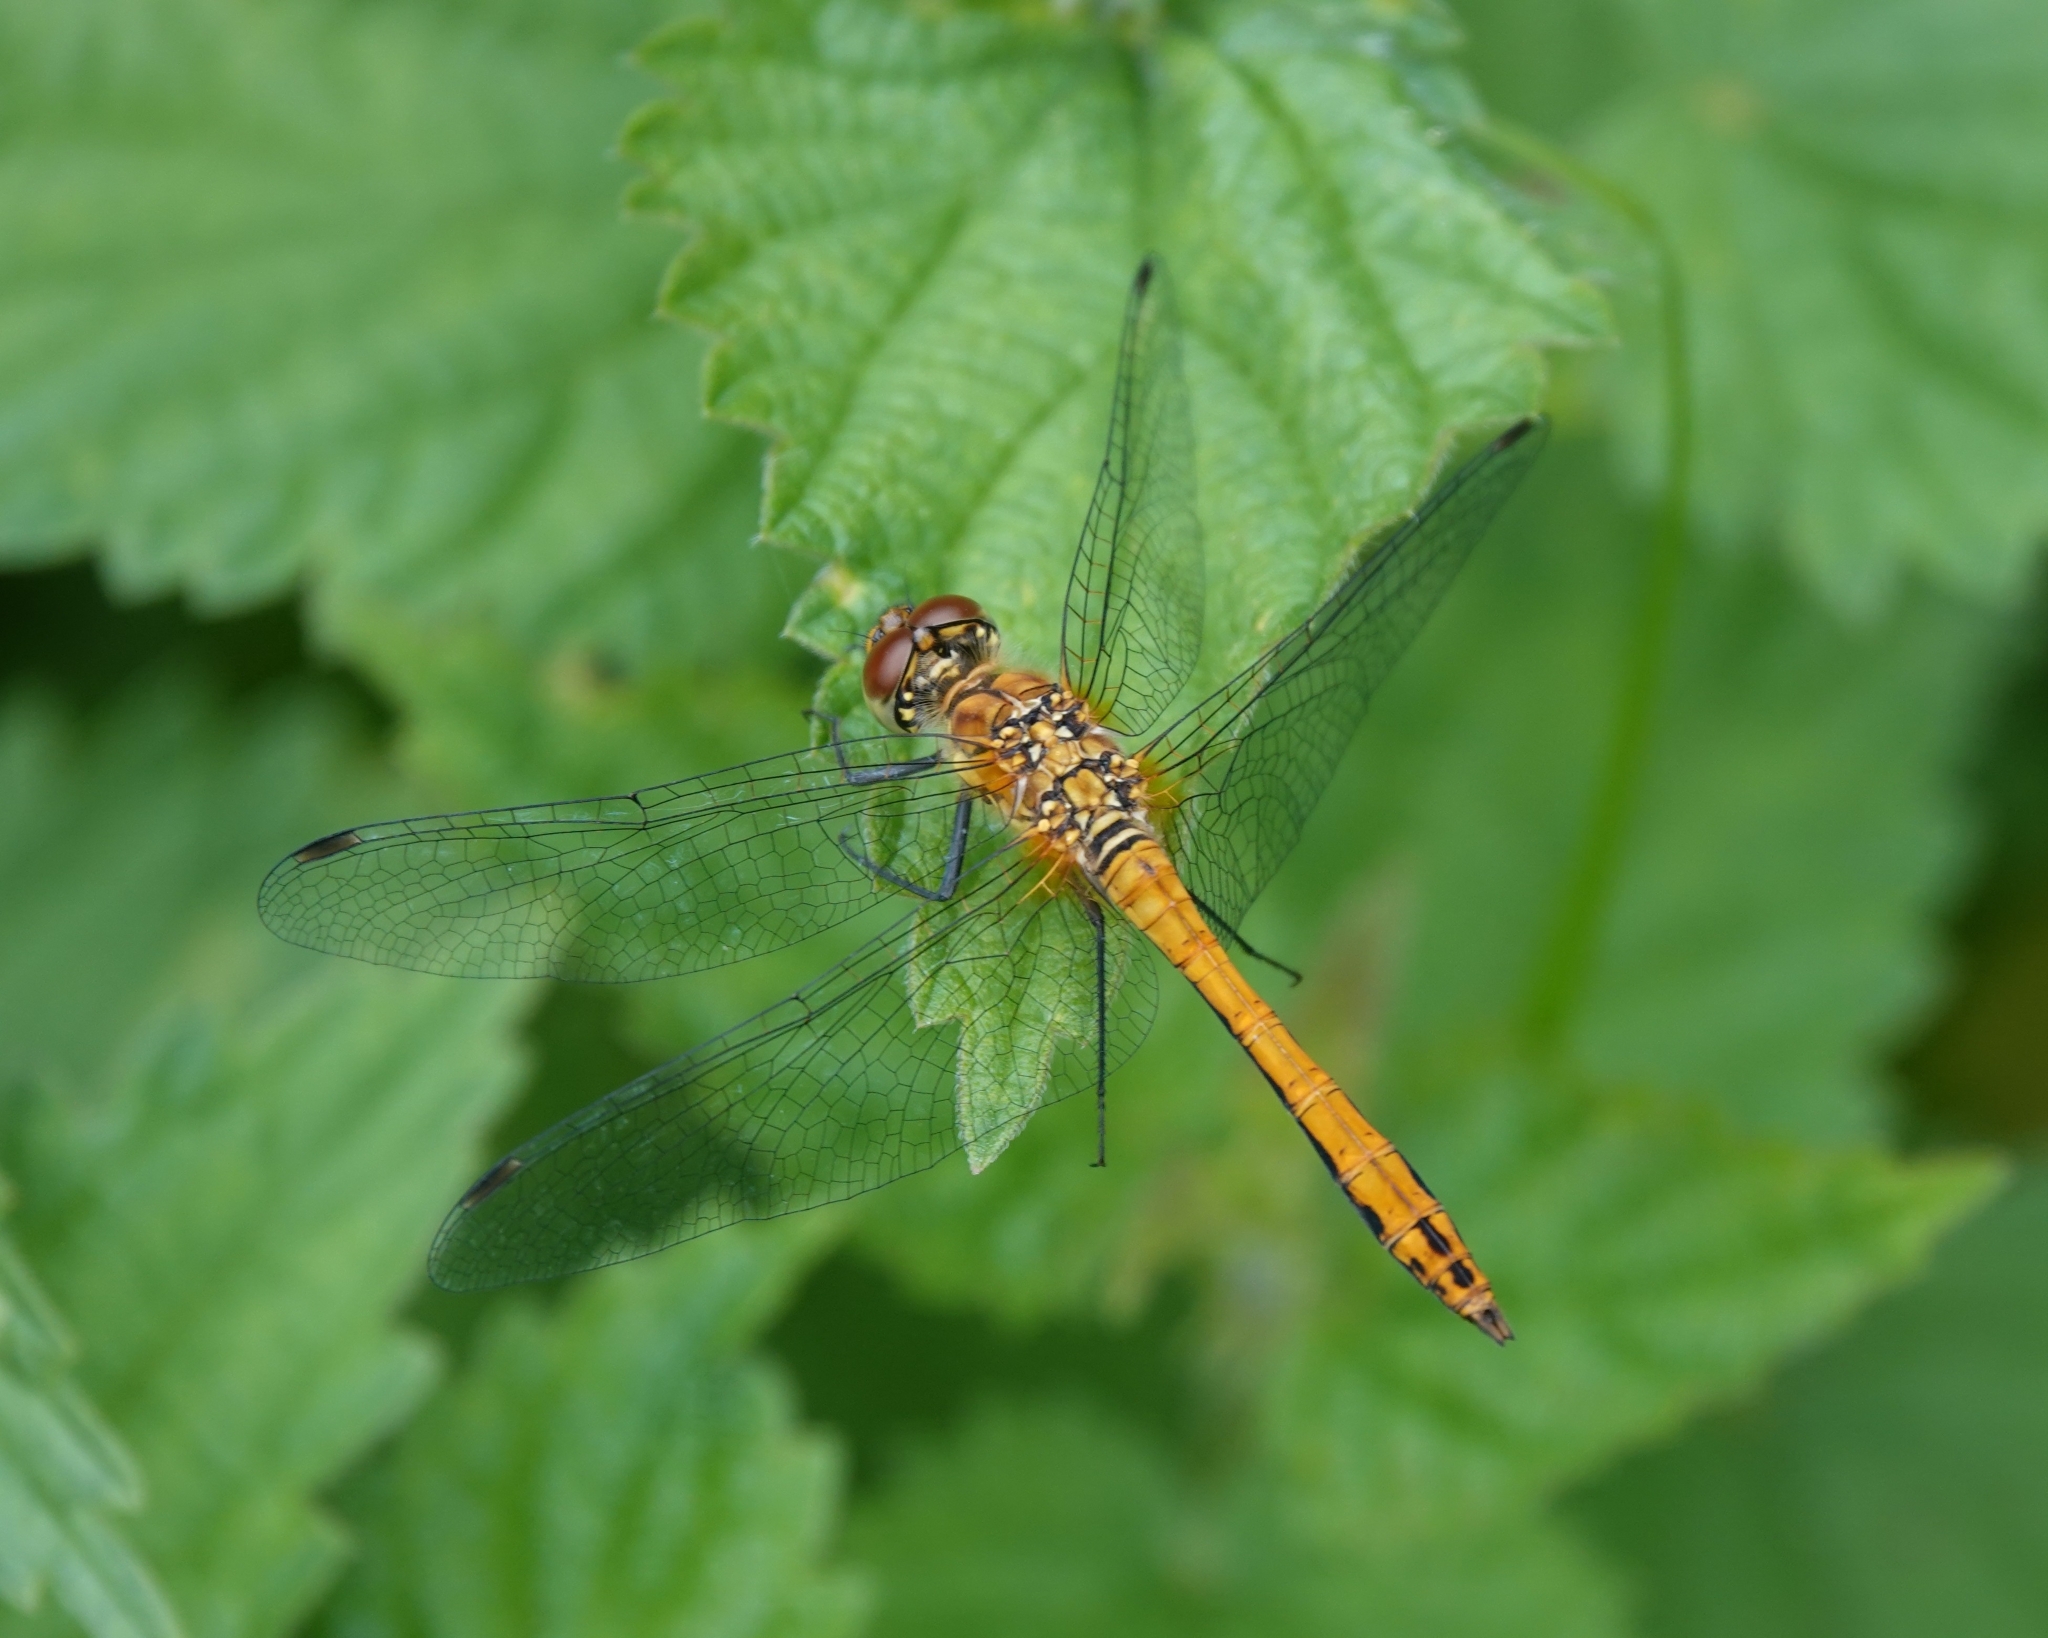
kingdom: Animalia
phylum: Arthropoda
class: Insecta
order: Odonata
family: Libellulidae
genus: Sympetrum
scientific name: Sympetrum sanguineum
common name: Ruddy darter
